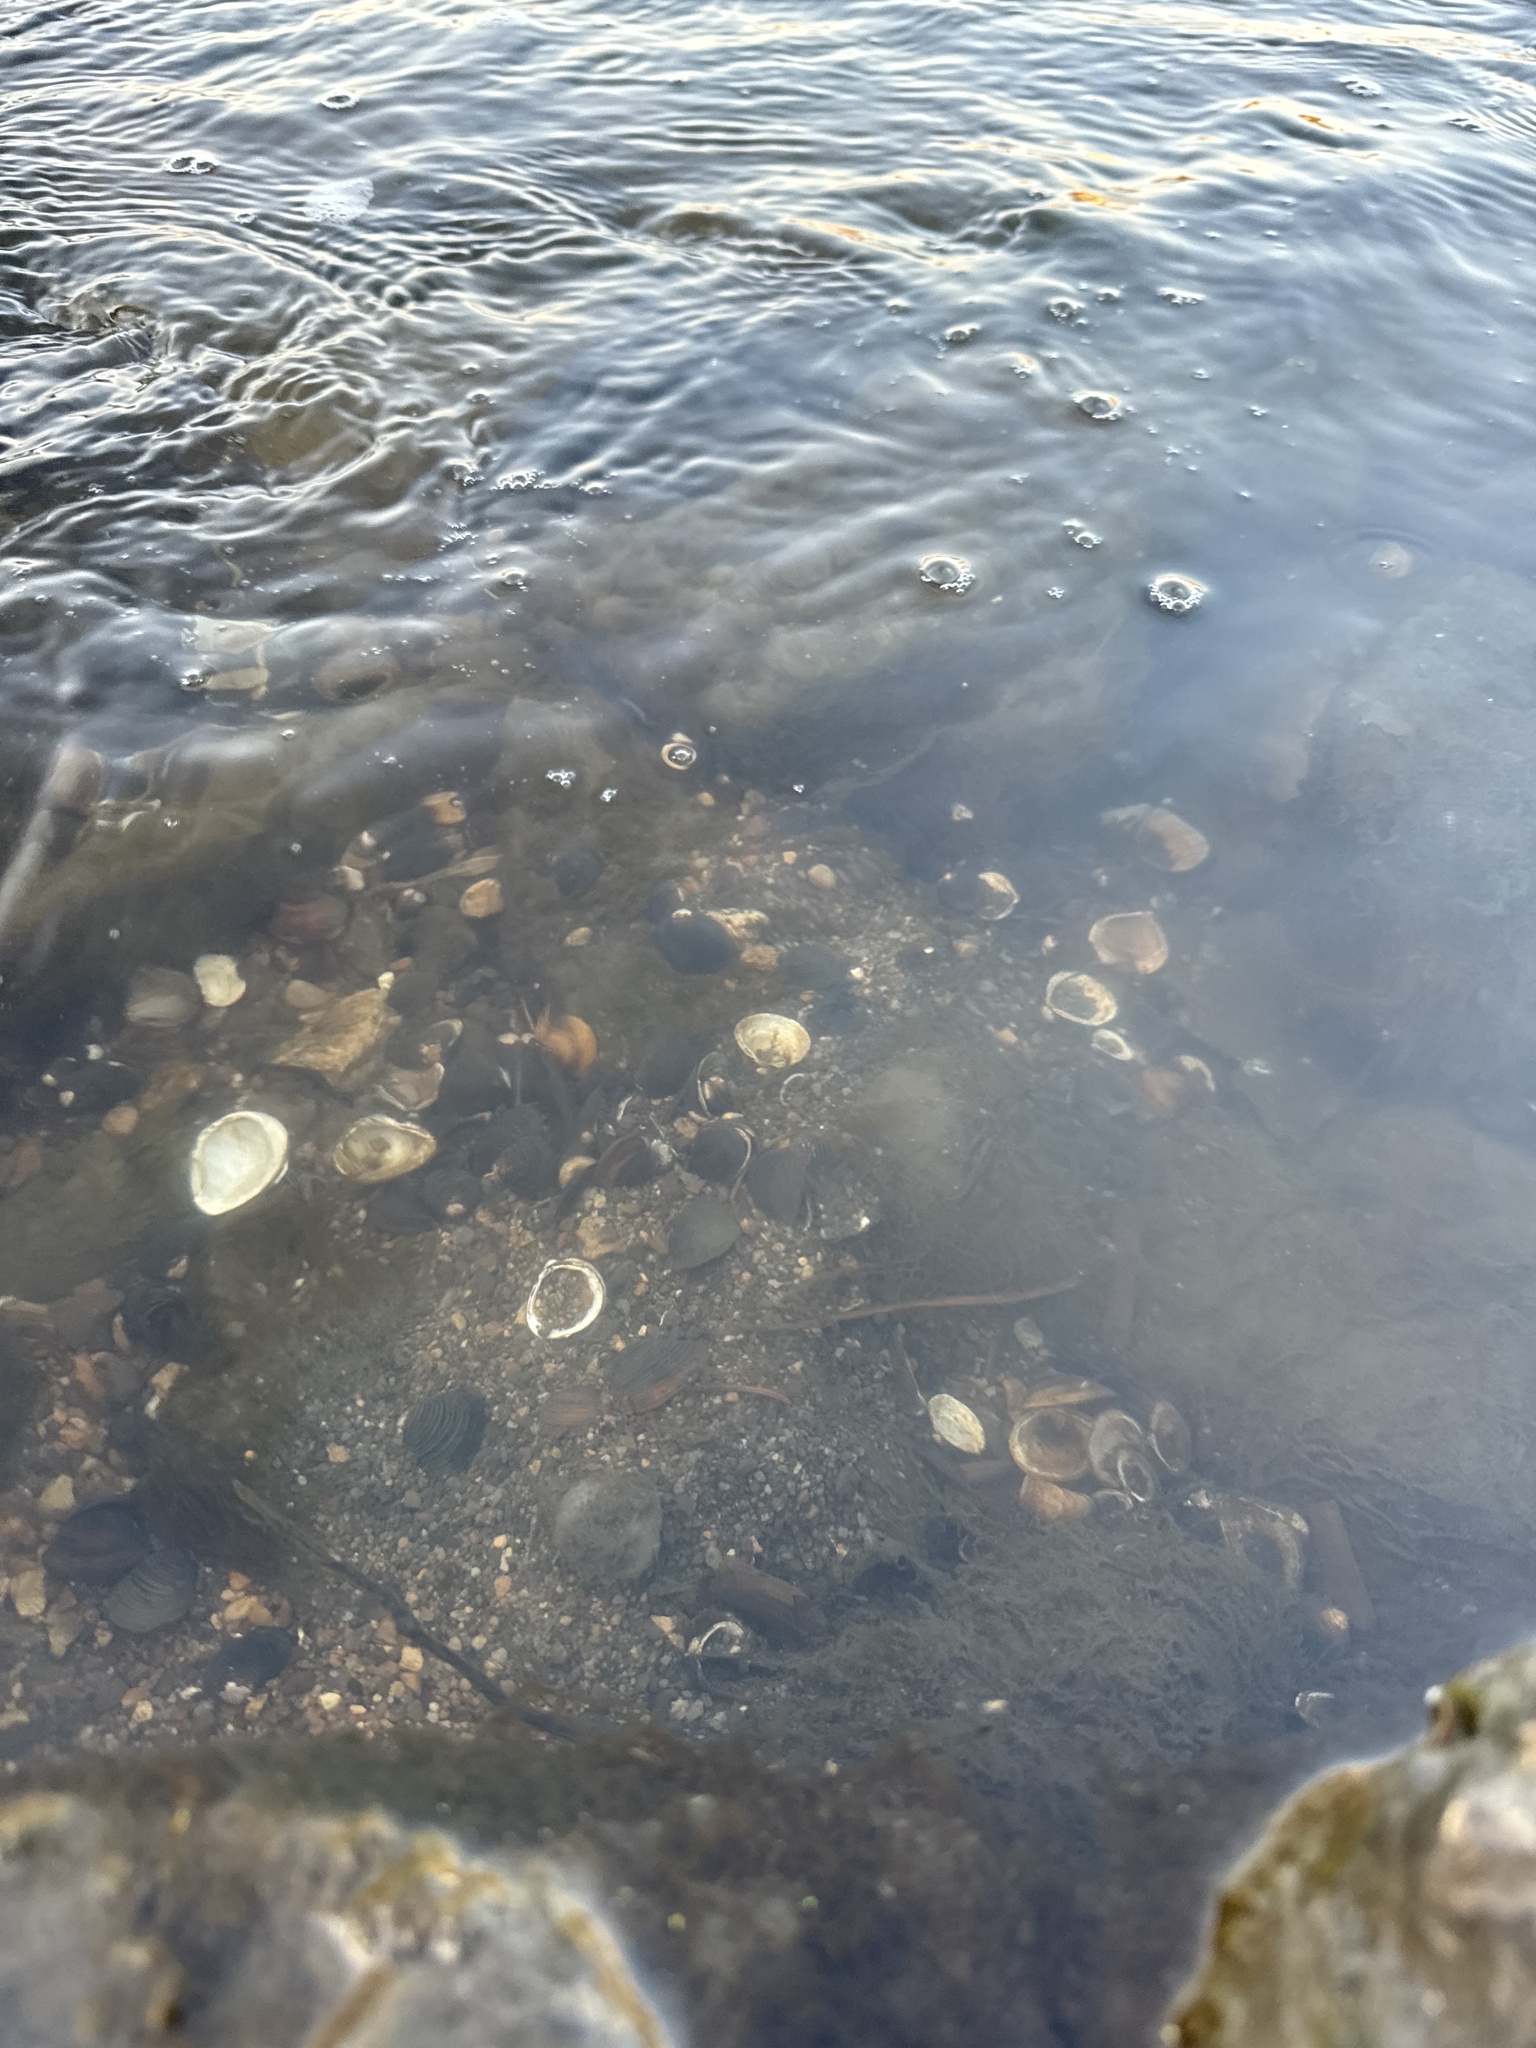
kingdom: Animalia
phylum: Mollusca
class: Bivalvia
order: Venerida
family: Cyrenidae
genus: Corbicula
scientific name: Corbicula fluminea
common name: Asian clam
